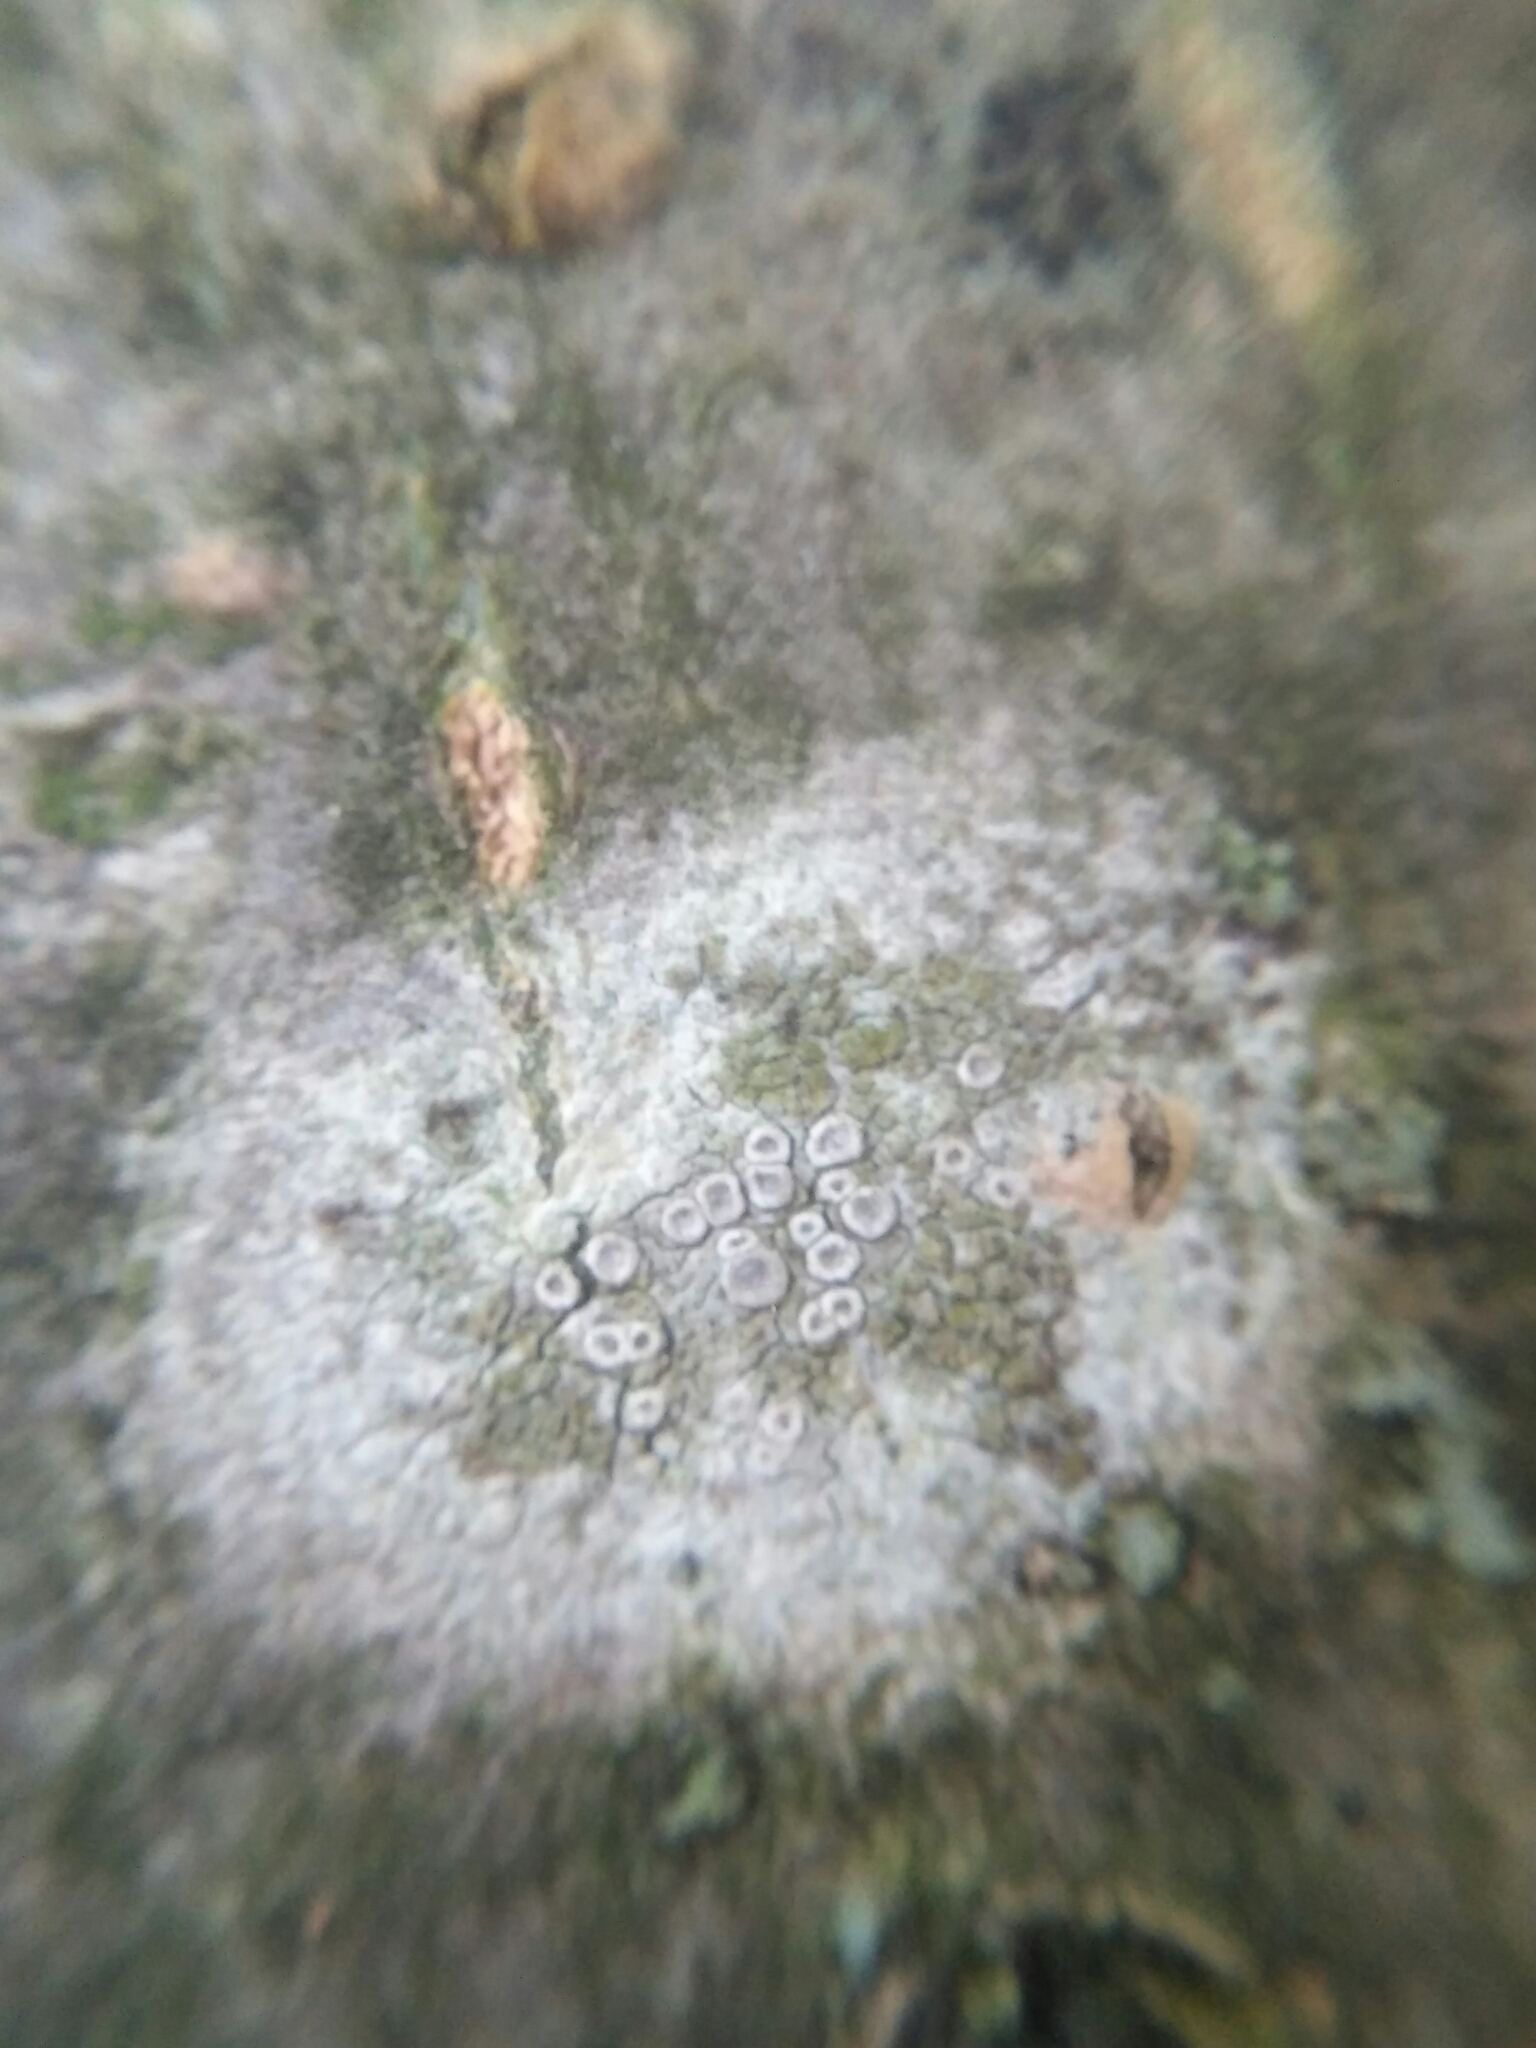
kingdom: Fungi
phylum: Ascomycota
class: Lecanoromycetes
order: Lecanorales
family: Lecanoraceae
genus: Glaucomaria
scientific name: Glaucomaria carpinea
